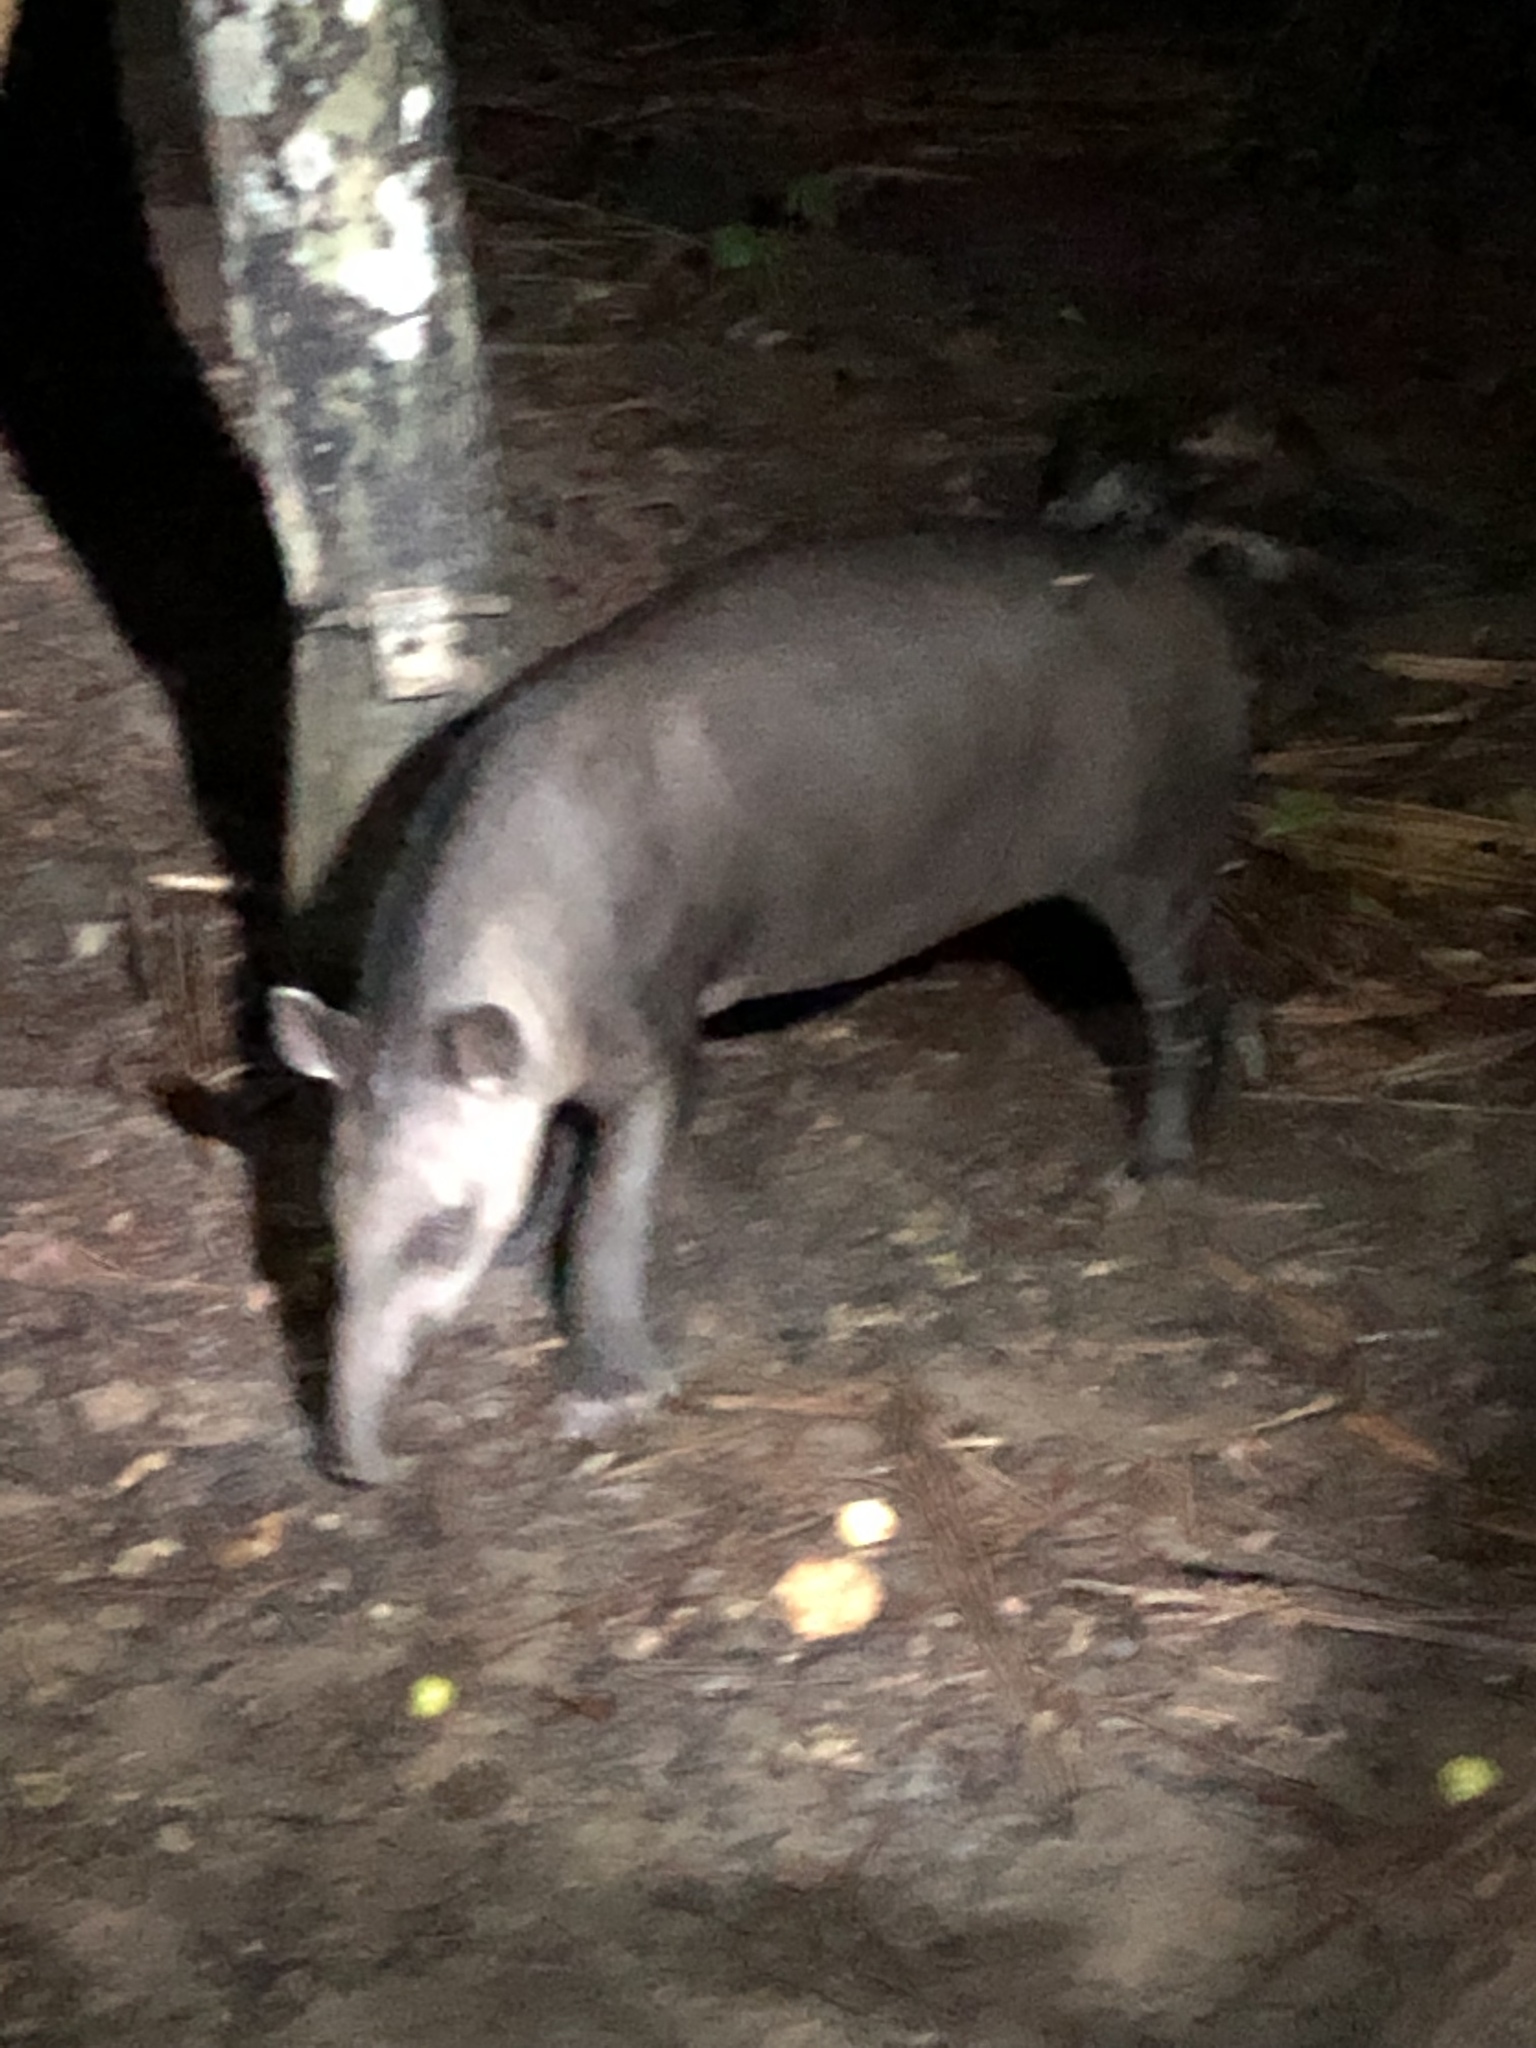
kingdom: Animalia
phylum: Chordata
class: Mammalia
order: Perissodactyla
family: Tapiridae
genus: Tapirus
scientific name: Tapirus terrestris
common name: Brazilian tapir
